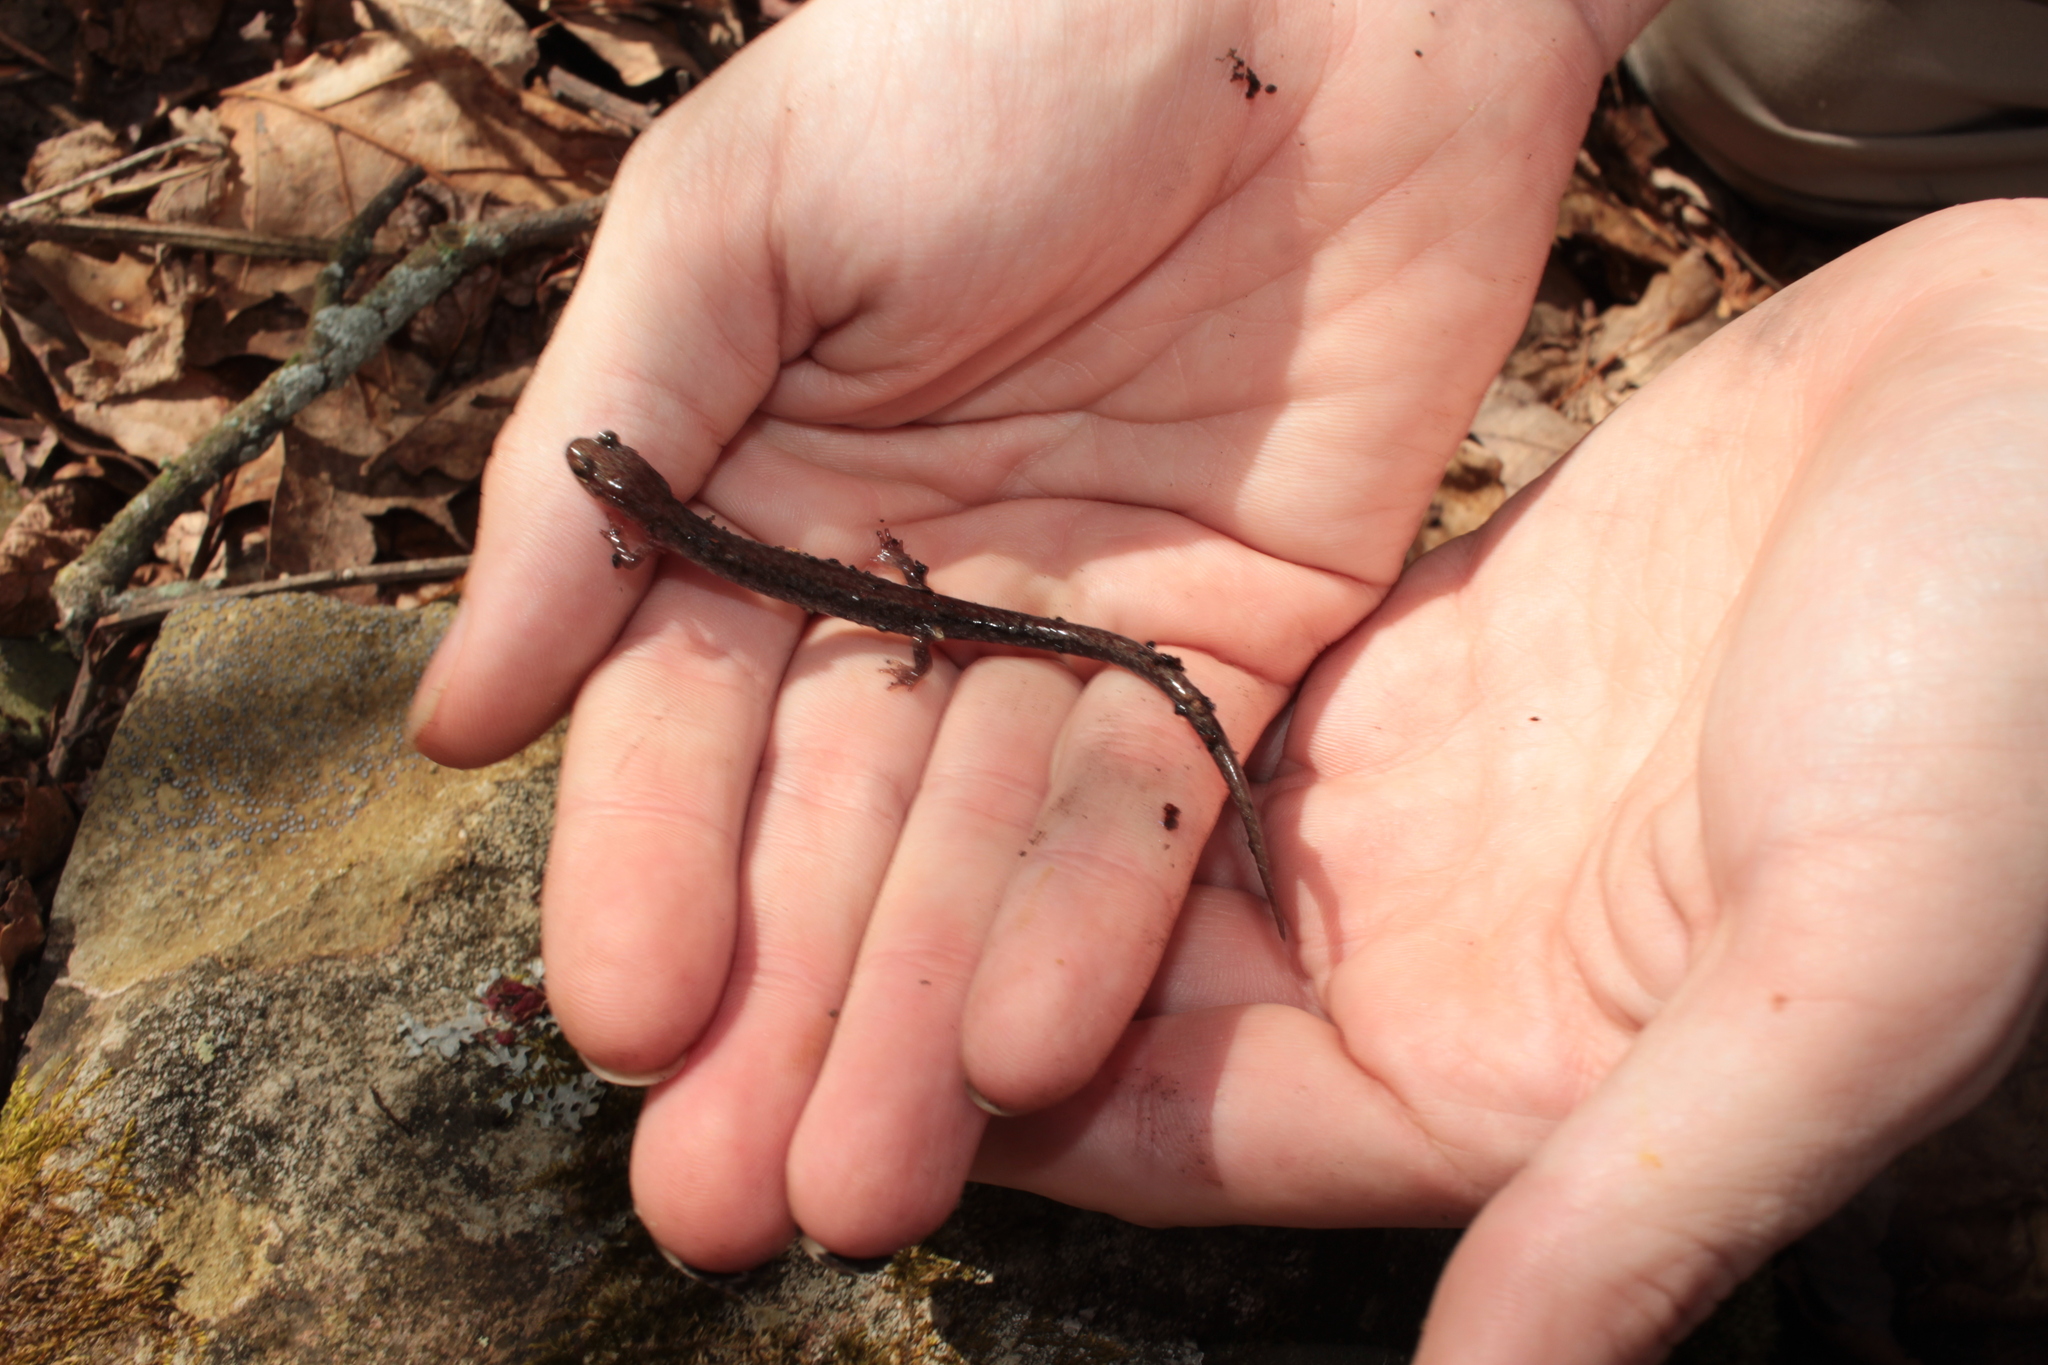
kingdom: Animalia
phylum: Chordata
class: Amphibia
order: Caudata
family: Plethodontidae
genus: Plethodon
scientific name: Plethodon sherando
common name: Big levels salamander
